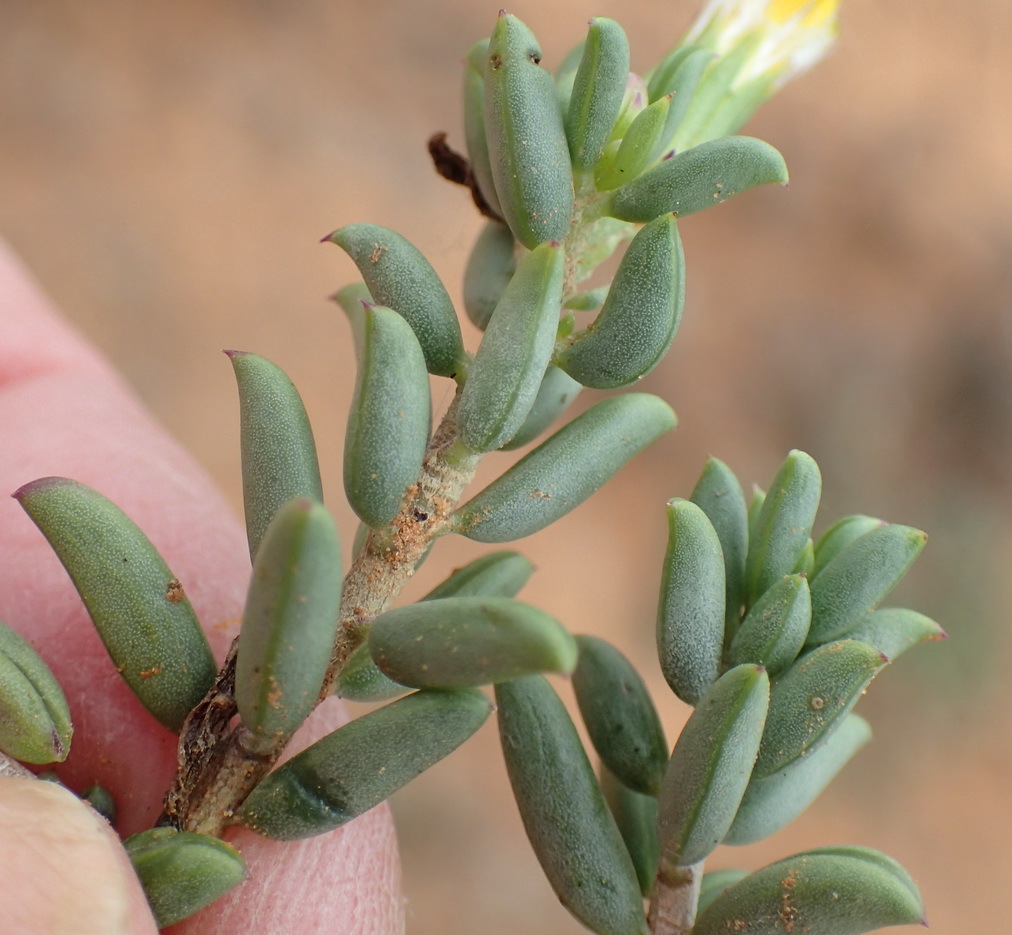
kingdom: Plantae
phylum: Tracheophyta
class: Magnoliopsida
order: Asterales
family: Asteraceae
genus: Senecio
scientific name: Senecio acutifolius
